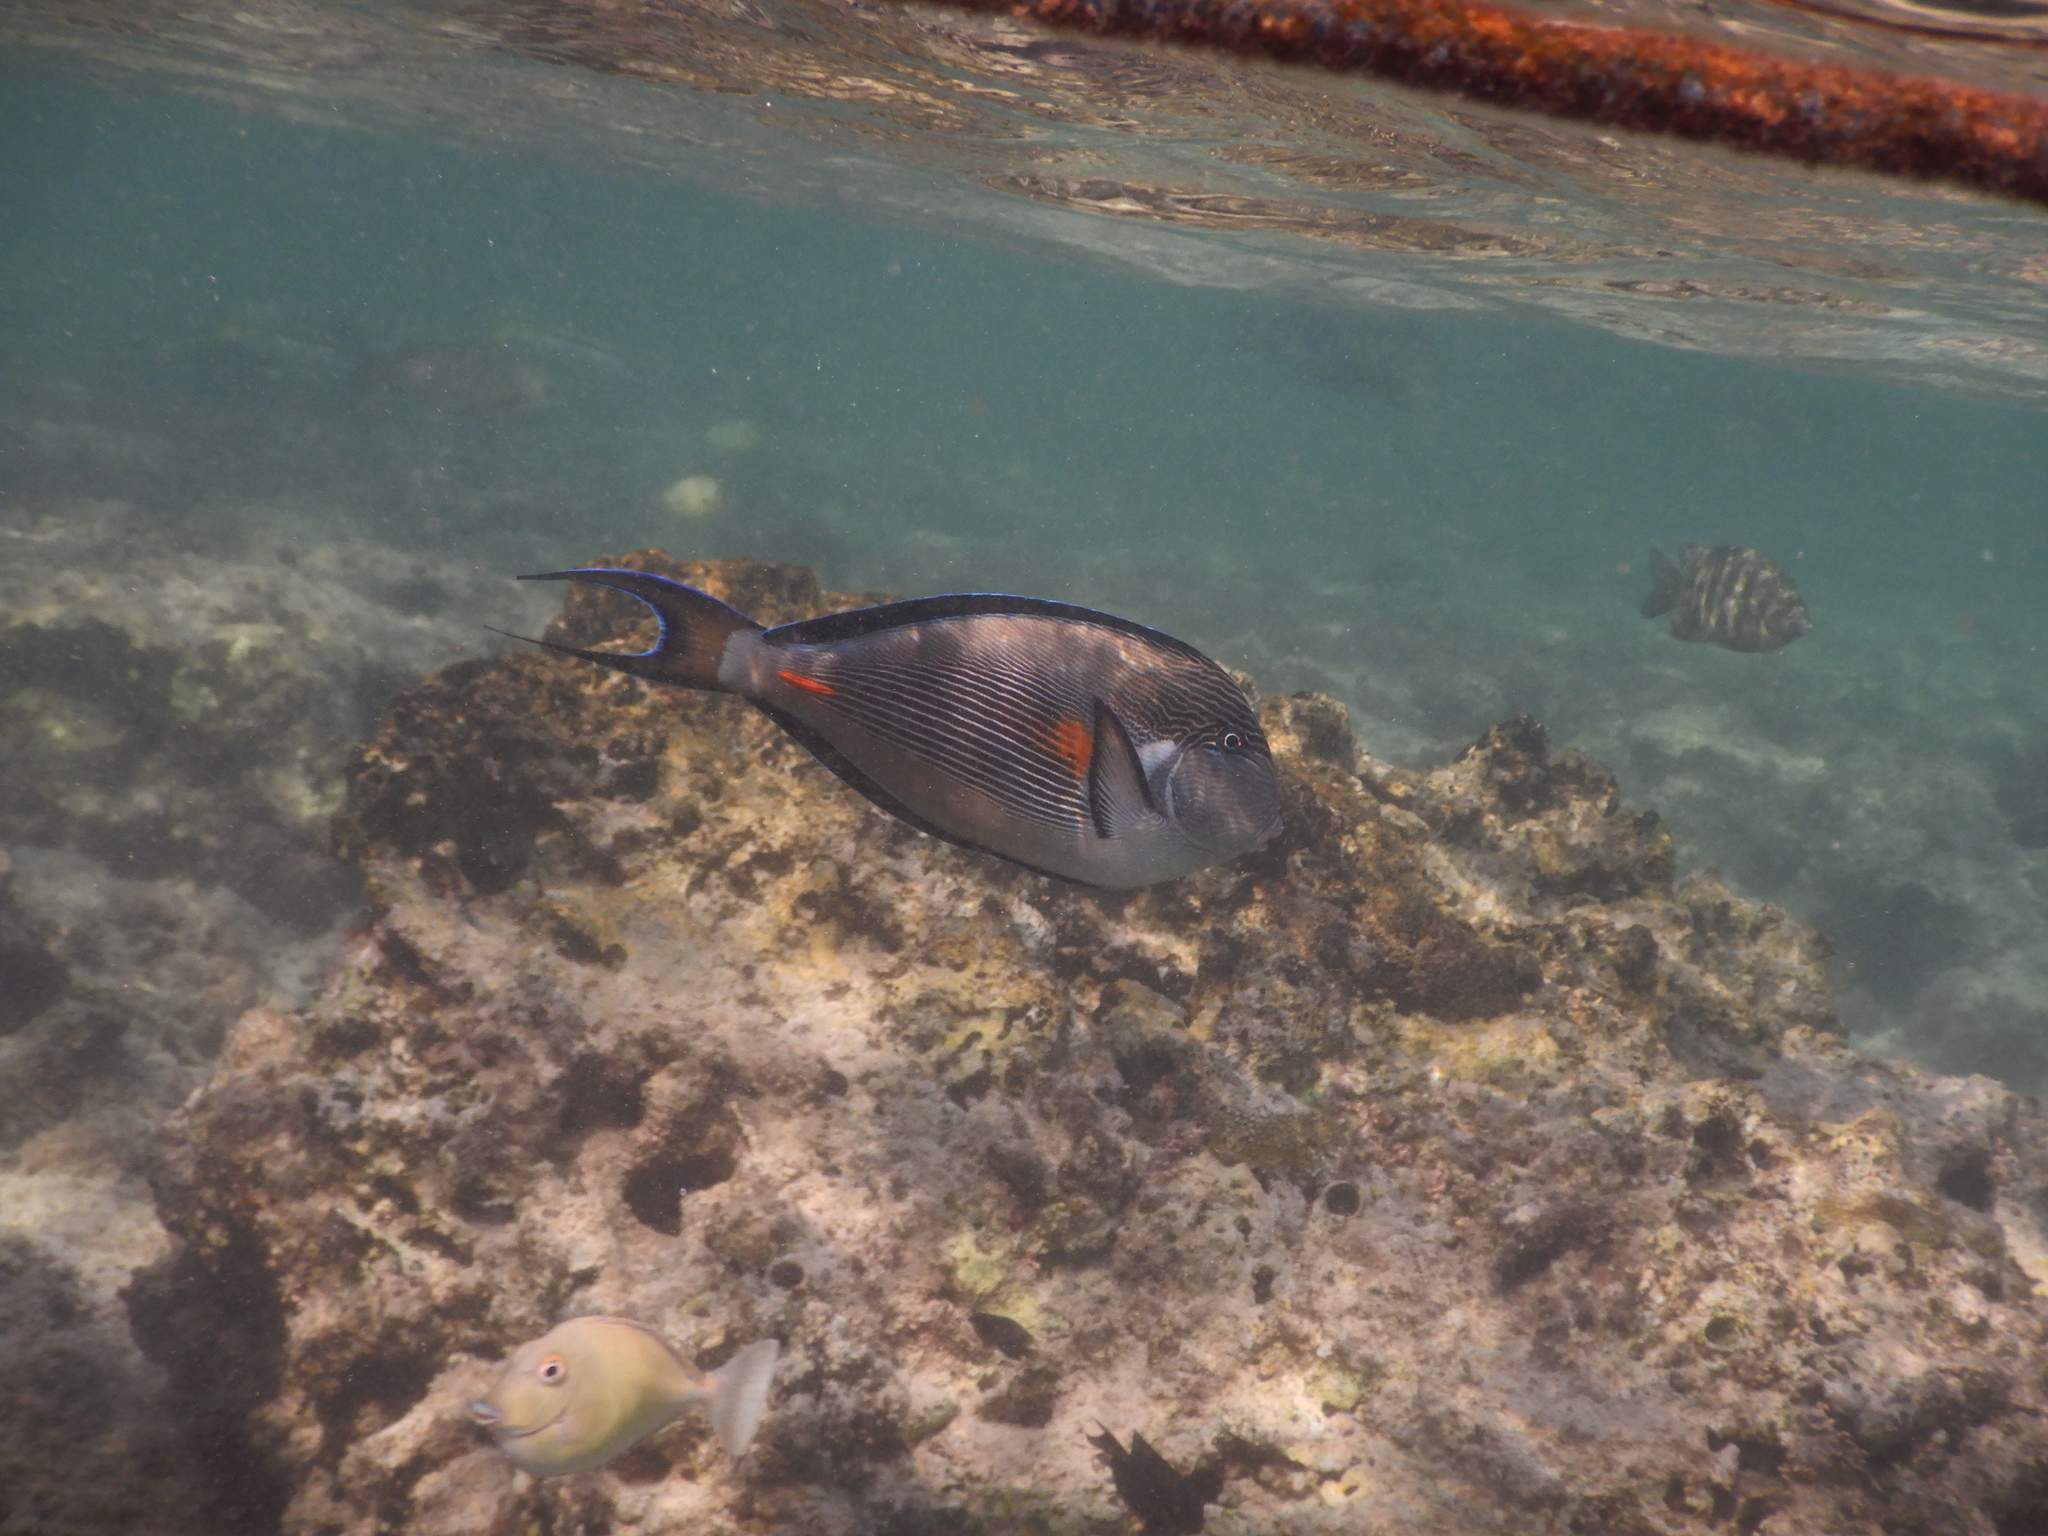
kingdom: Animalia
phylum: Chordata
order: Perciformes
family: Acanthuridae
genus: Acanthurus
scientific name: Acanthurus sohal
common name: Red sea surgeonfish
